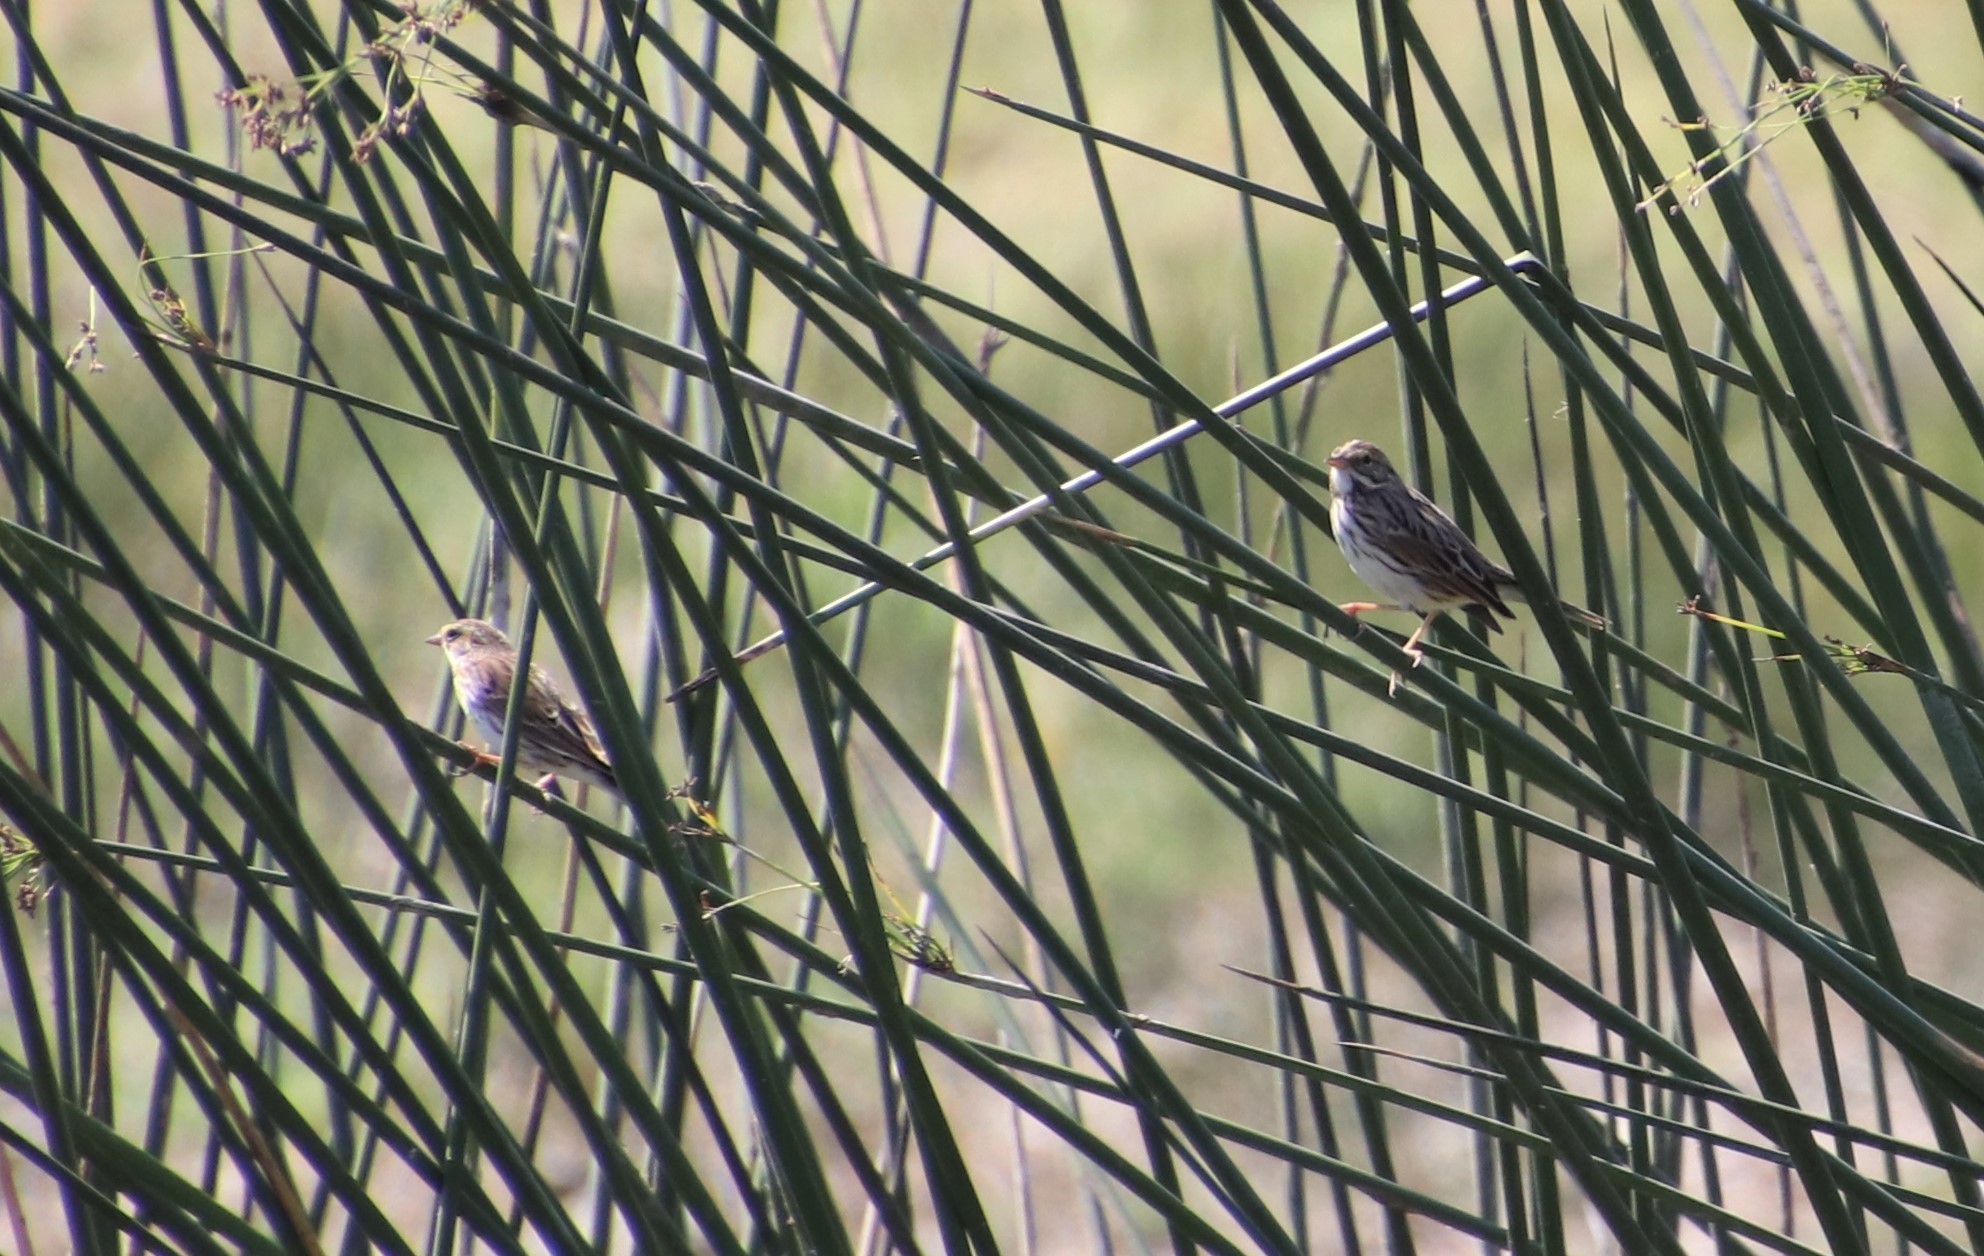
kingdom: Animalia
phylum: Chordata
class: Aves
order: Passeriformes
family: Passerellidae
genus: Passerculus
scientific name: Passerculus sandwichensis
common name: Savannah sparrow
